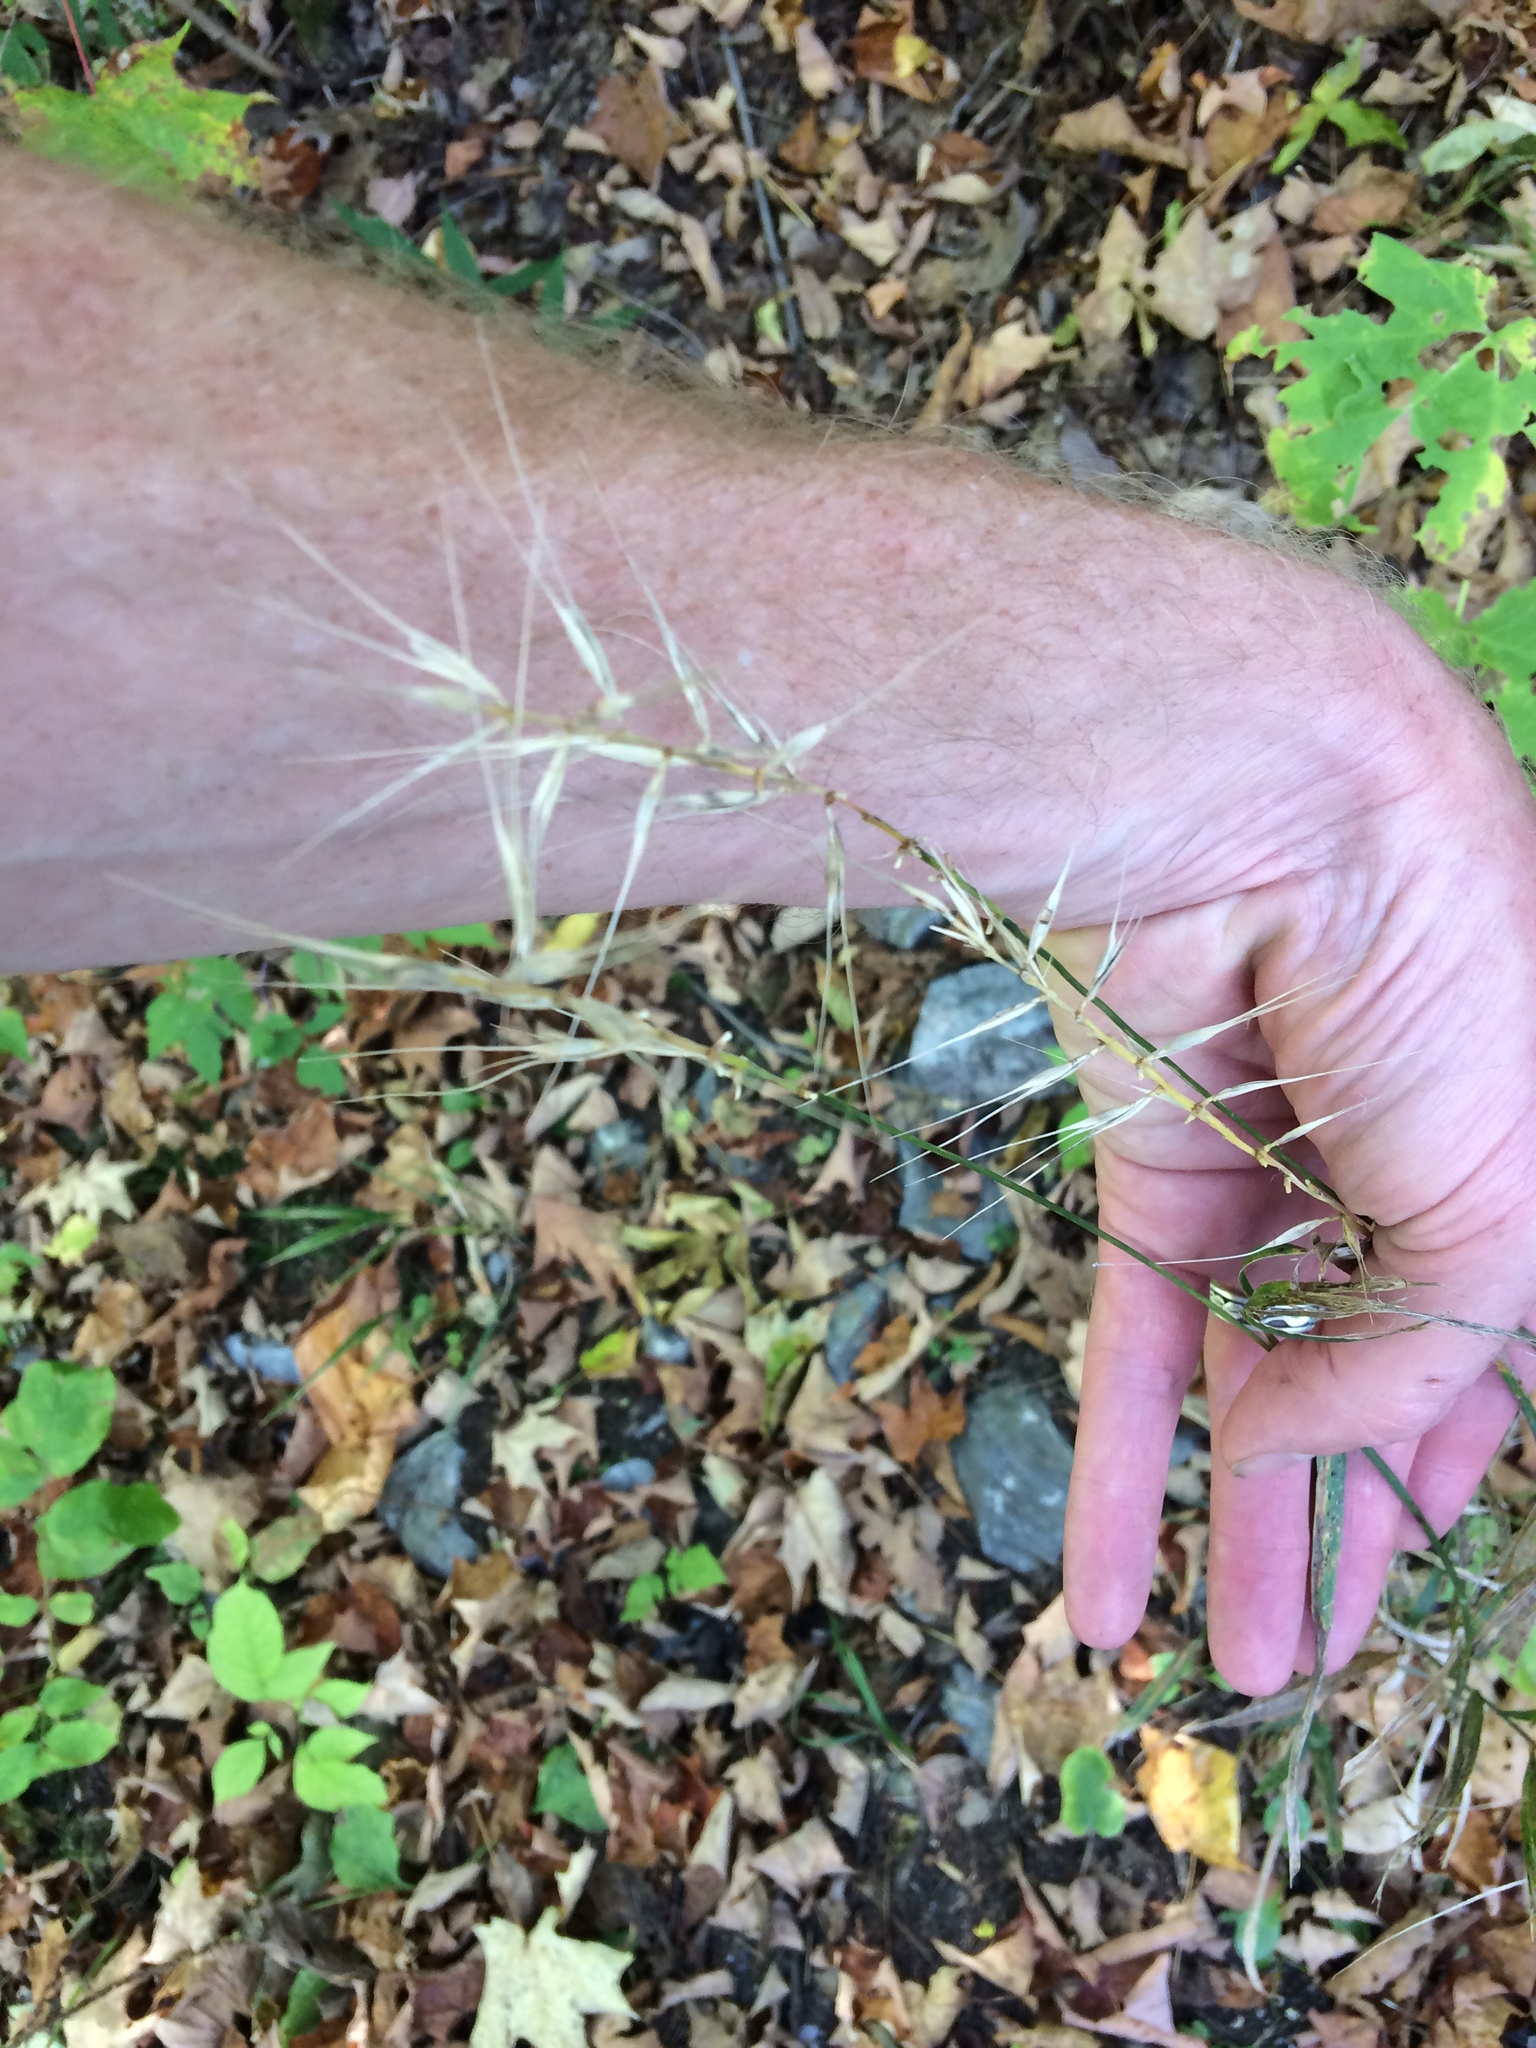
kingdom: Plantae
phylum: Tracheophyta
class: Liliopsida
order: Poales
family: Poaceae
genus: Elymus
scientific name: Elymus hystrix
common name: Bottlebrush grass
